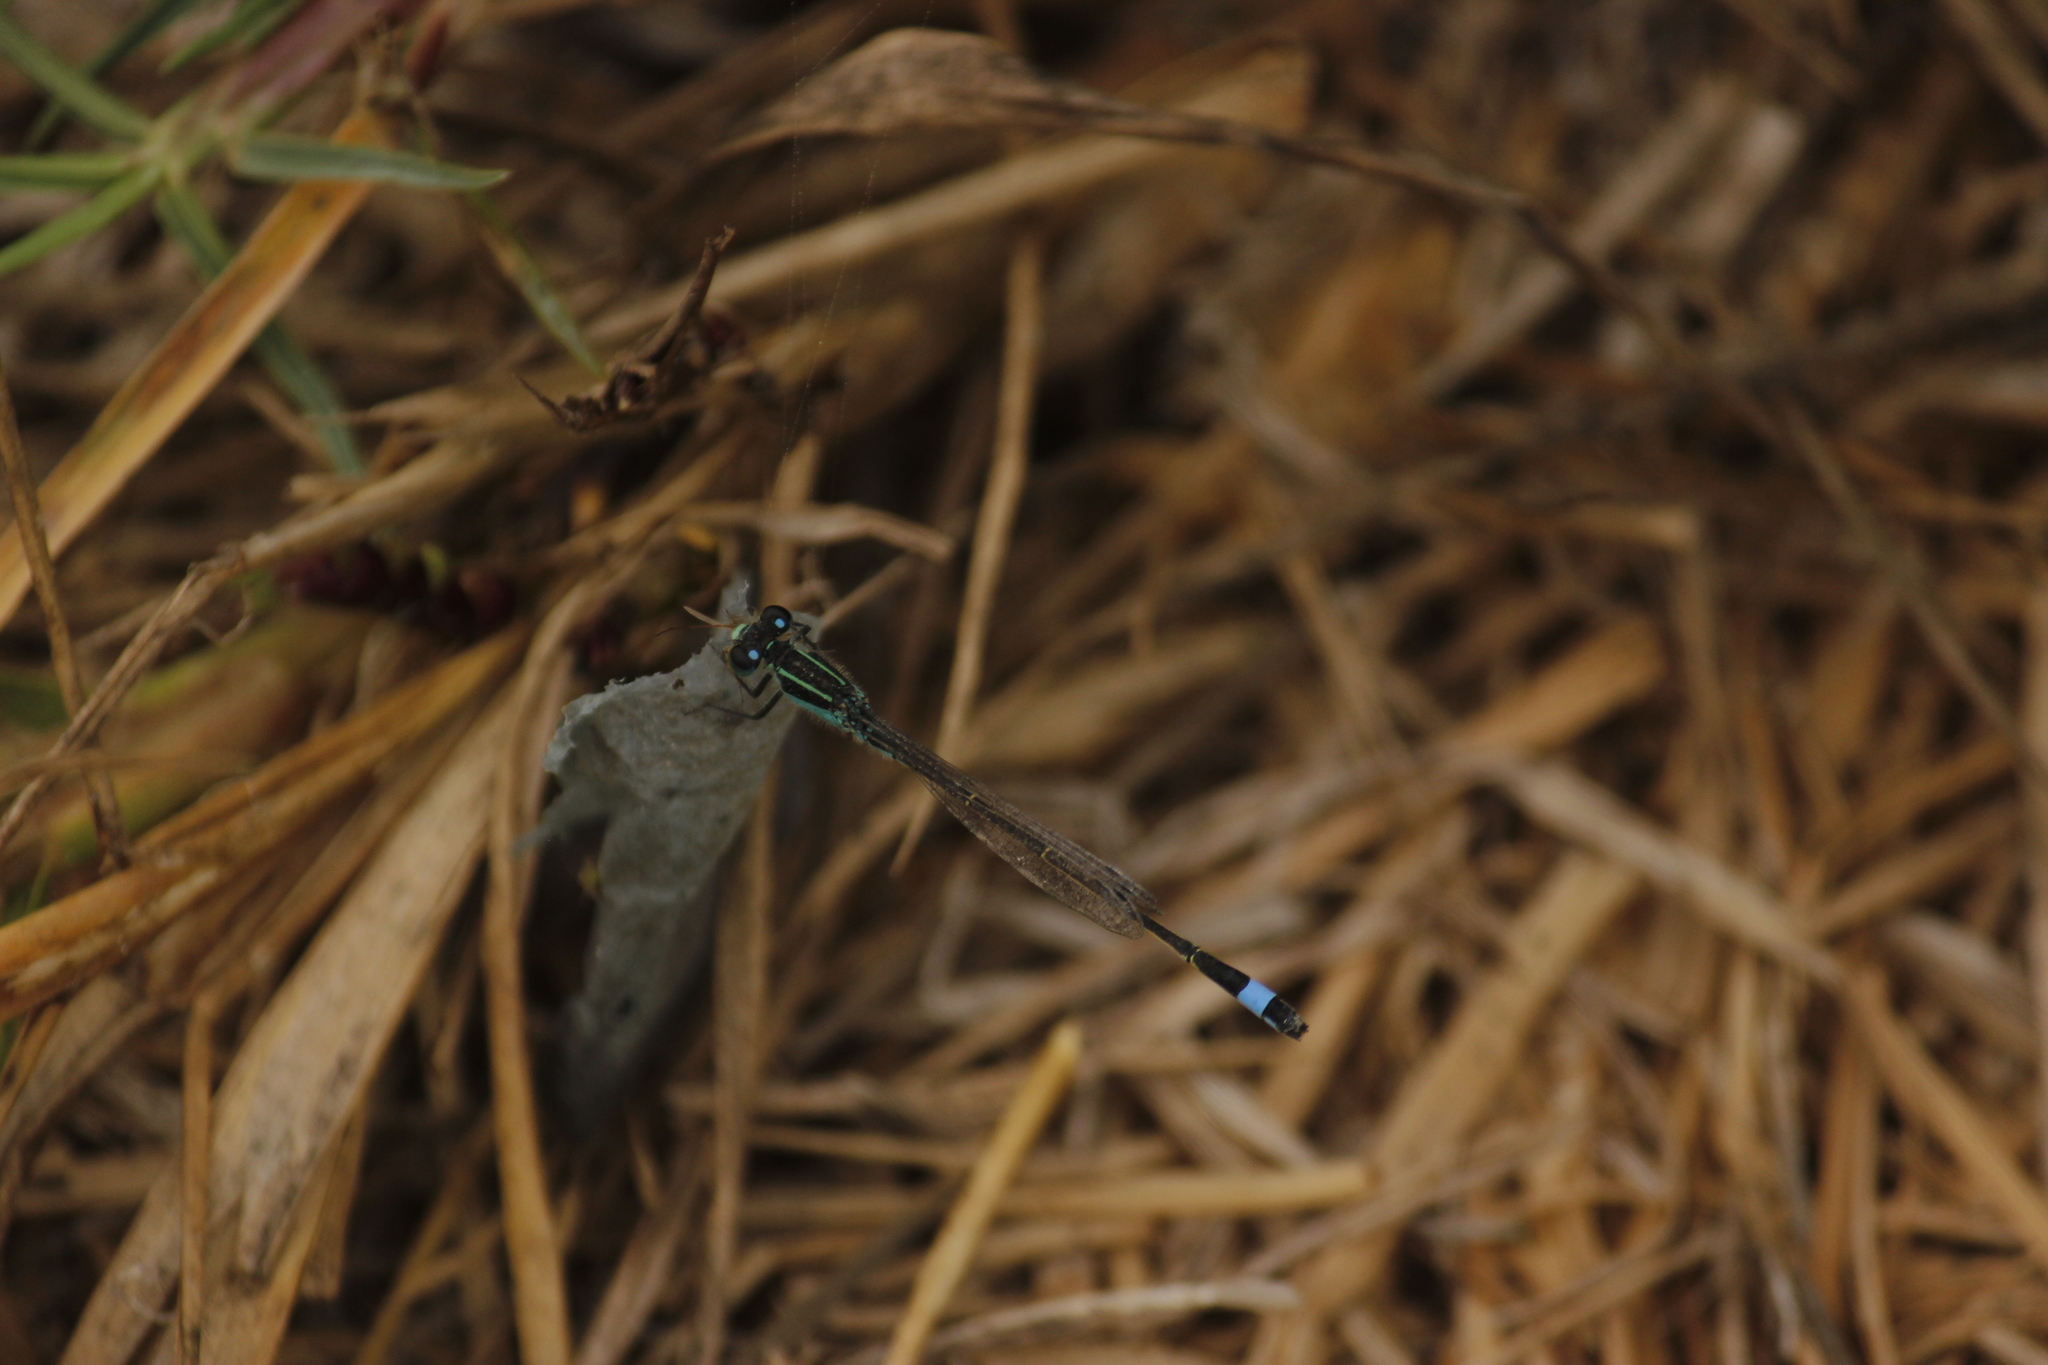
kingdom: Animalia
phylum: Arthropoda
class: Insecta
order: Odonata
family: Coenagrionidae
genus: Ischnura
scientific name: Ischnura ramburii
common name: Rambur's forktail
